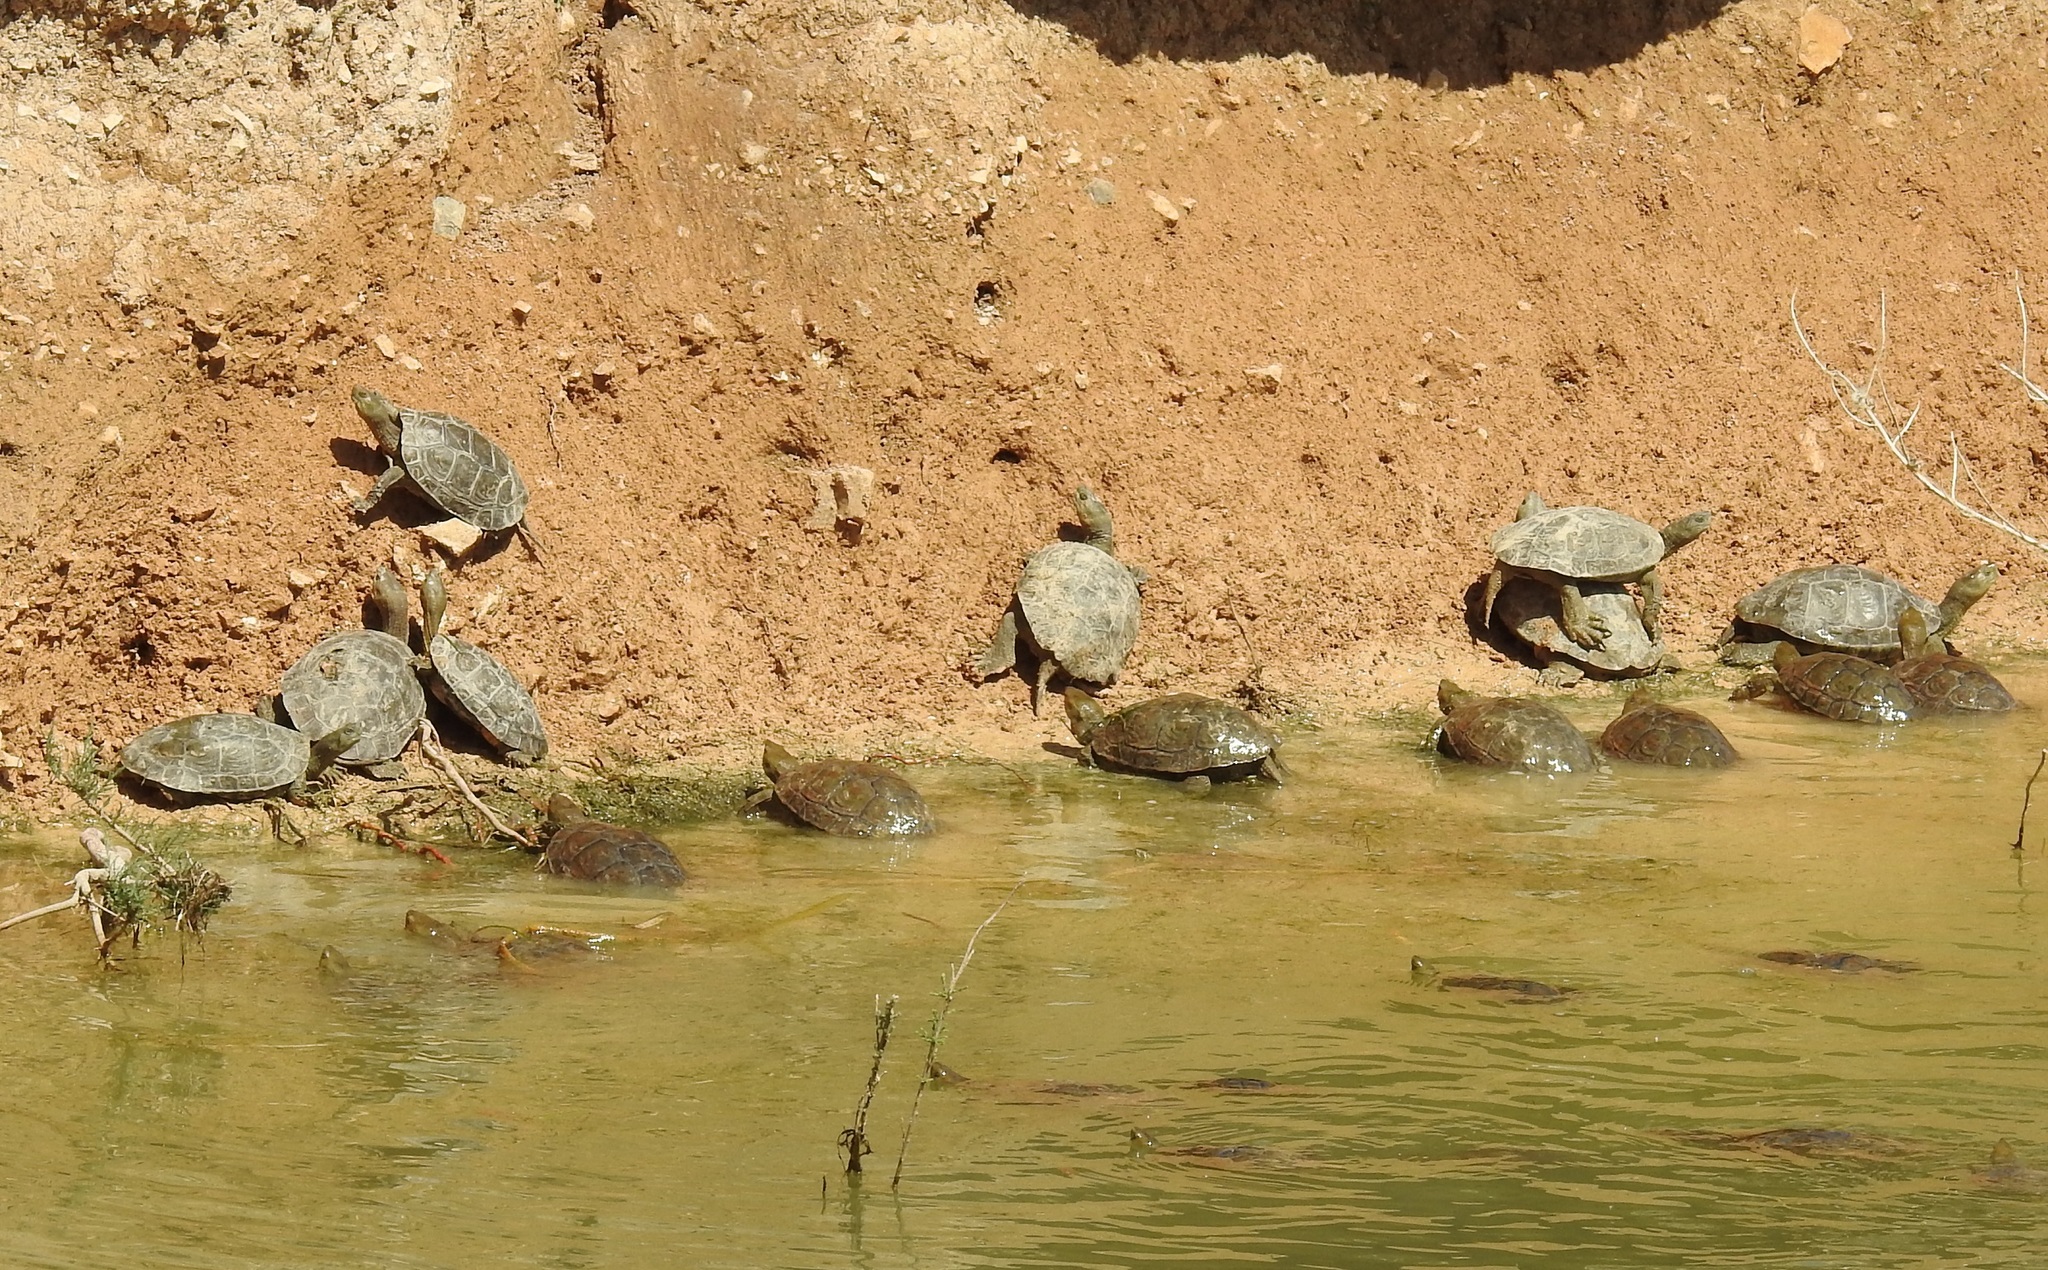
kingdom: Animalia
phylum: Chordata
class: Testudines
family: Geoemydidae
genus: Mauremys
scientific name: Mauremys leprosa
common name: Mediterranean pond turtle
